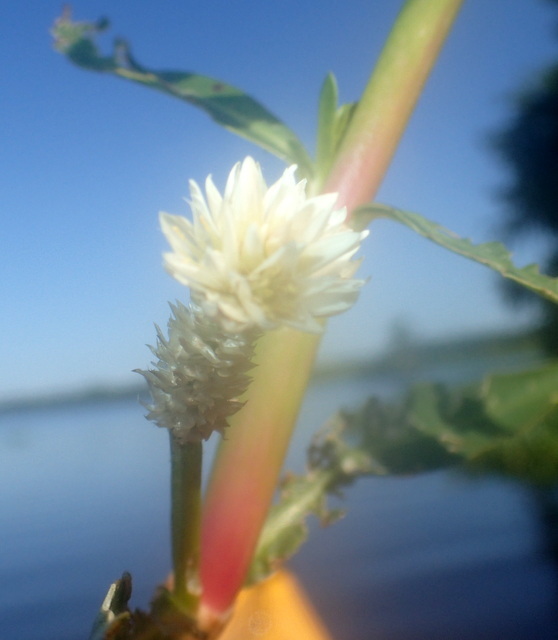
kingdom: Plantae
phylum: Tracheophyta
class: Magnoliopsida
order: Caryophyllales
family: Amaranthaceae
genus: Alternanthera
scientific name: Alternanthera philoxeroides
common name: Alligatorweed
